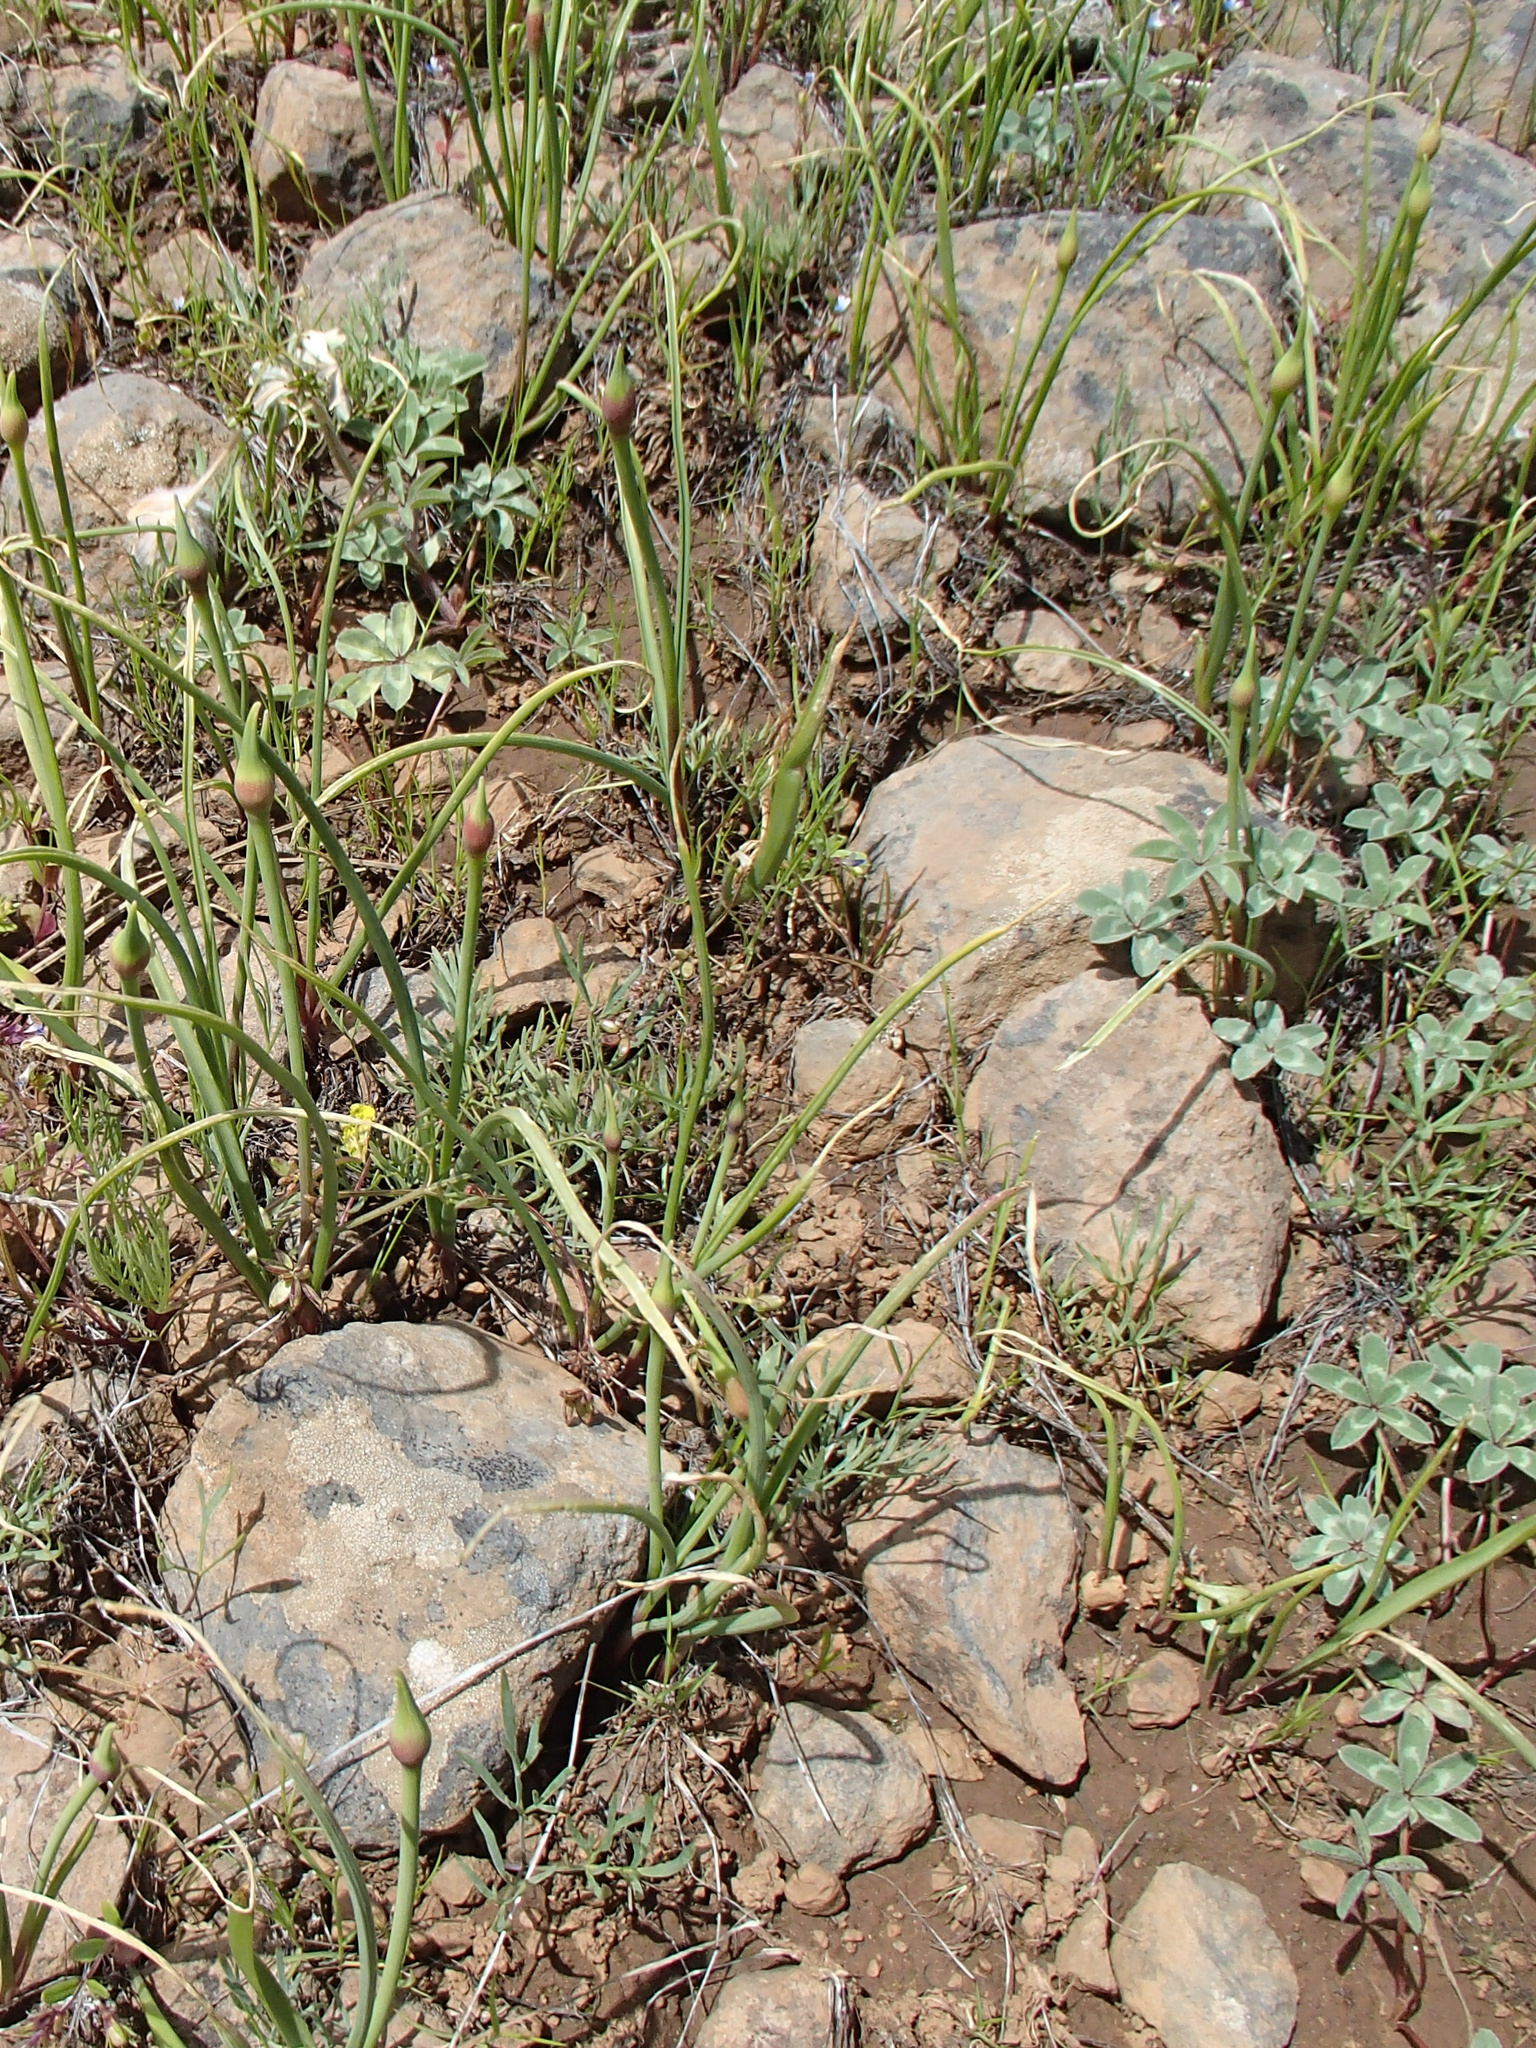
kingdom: Plantae
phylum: Tracheophyta
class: Liliopsida
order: Asparagales
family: Amaryllidaceae
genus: Allium
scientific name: Allium acuminatum
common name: Hooker's onion
